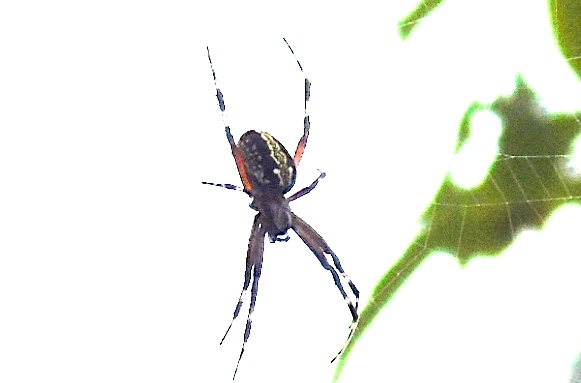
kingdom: Animalia
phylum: Arthropoda
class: Arachnida
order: Araneae
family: Araneidae
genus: Neoscona
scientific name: Neoscona oaxacensis
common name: Orb weavers
